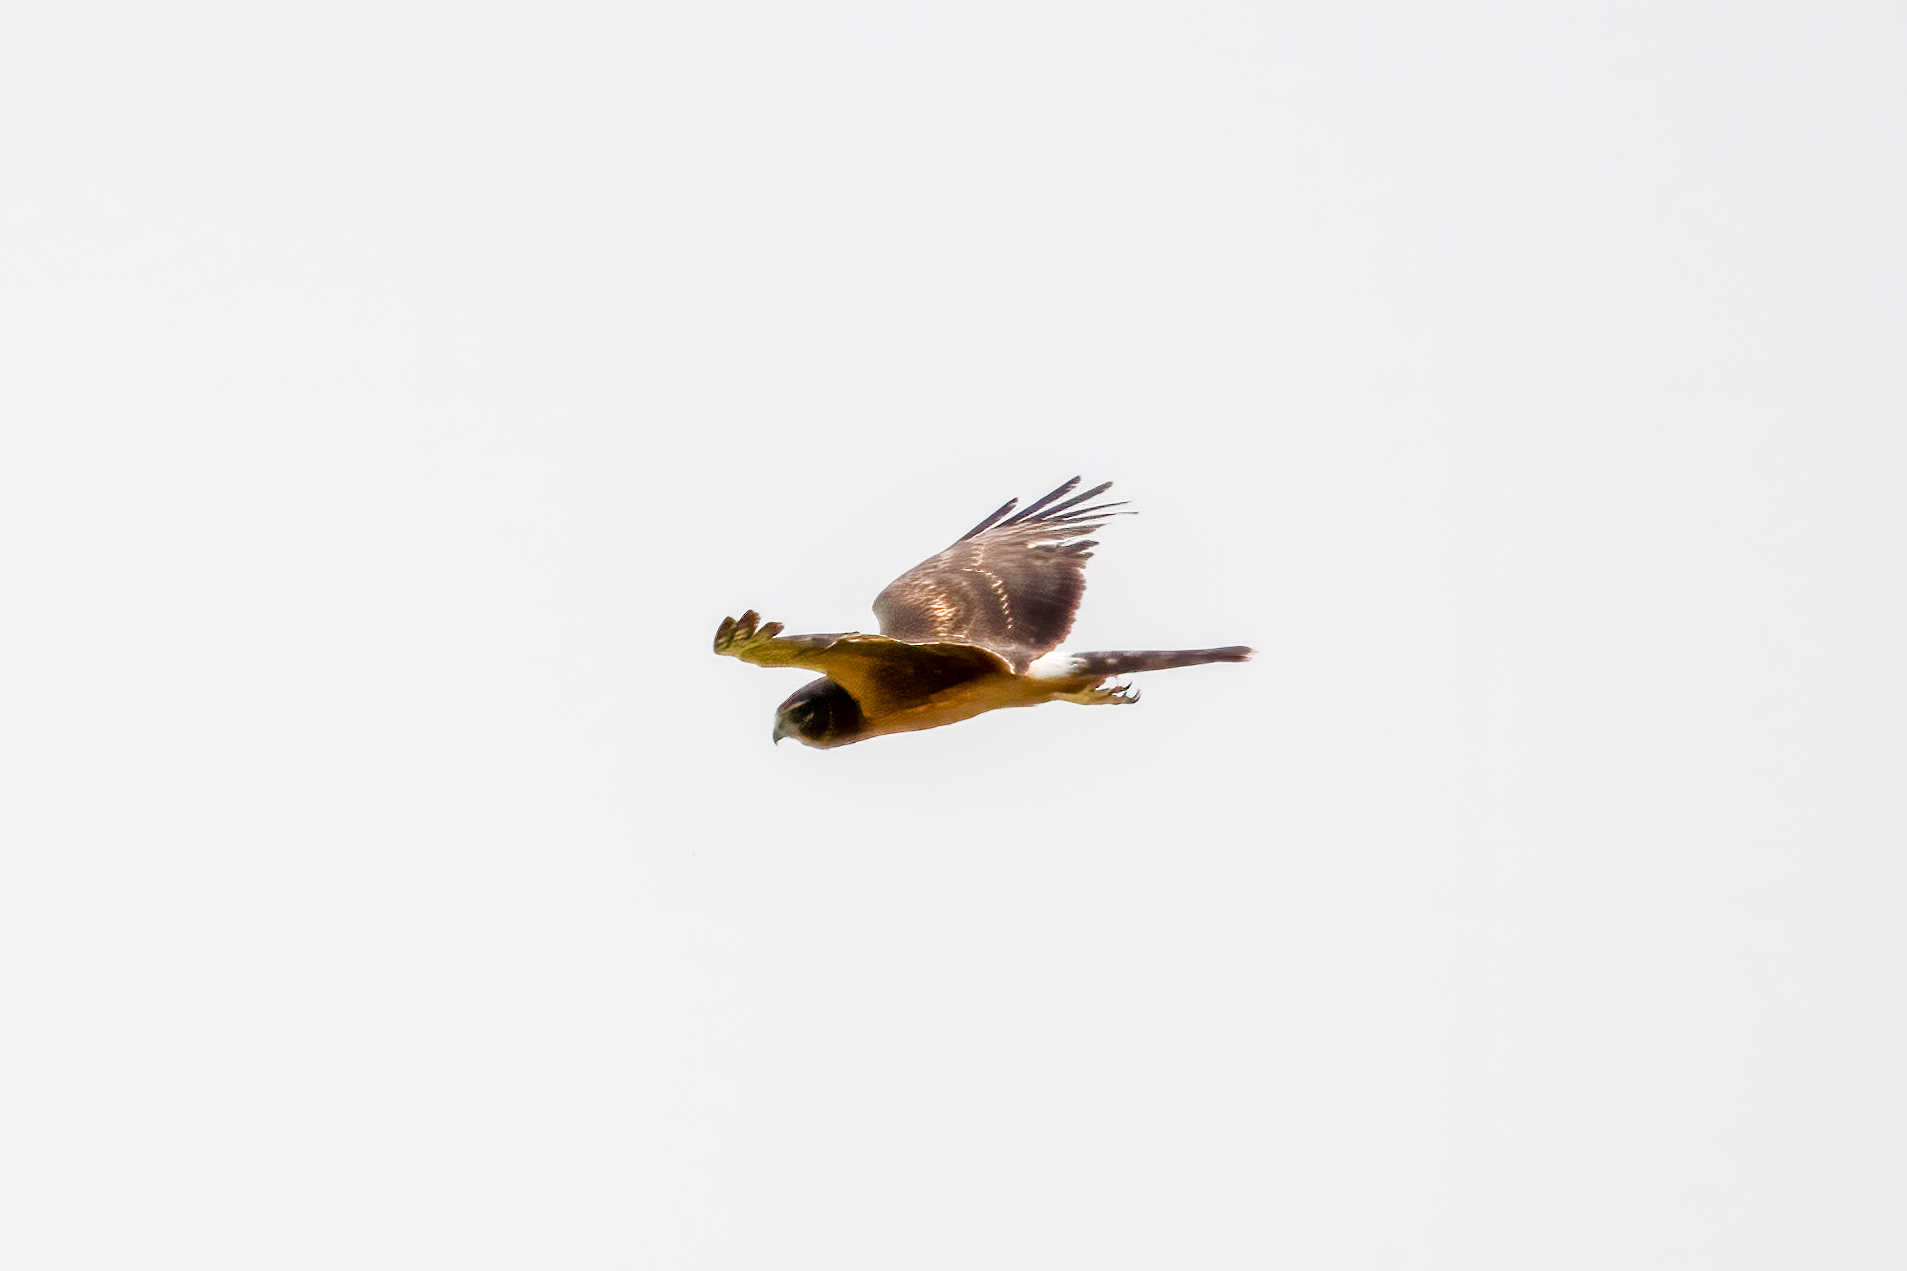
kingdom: Animalia
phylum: Chordata
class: Aves
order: Accipitriformes
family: Accipitridae
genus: Circus
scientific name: Circus cyaneus
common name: Hen harrier
